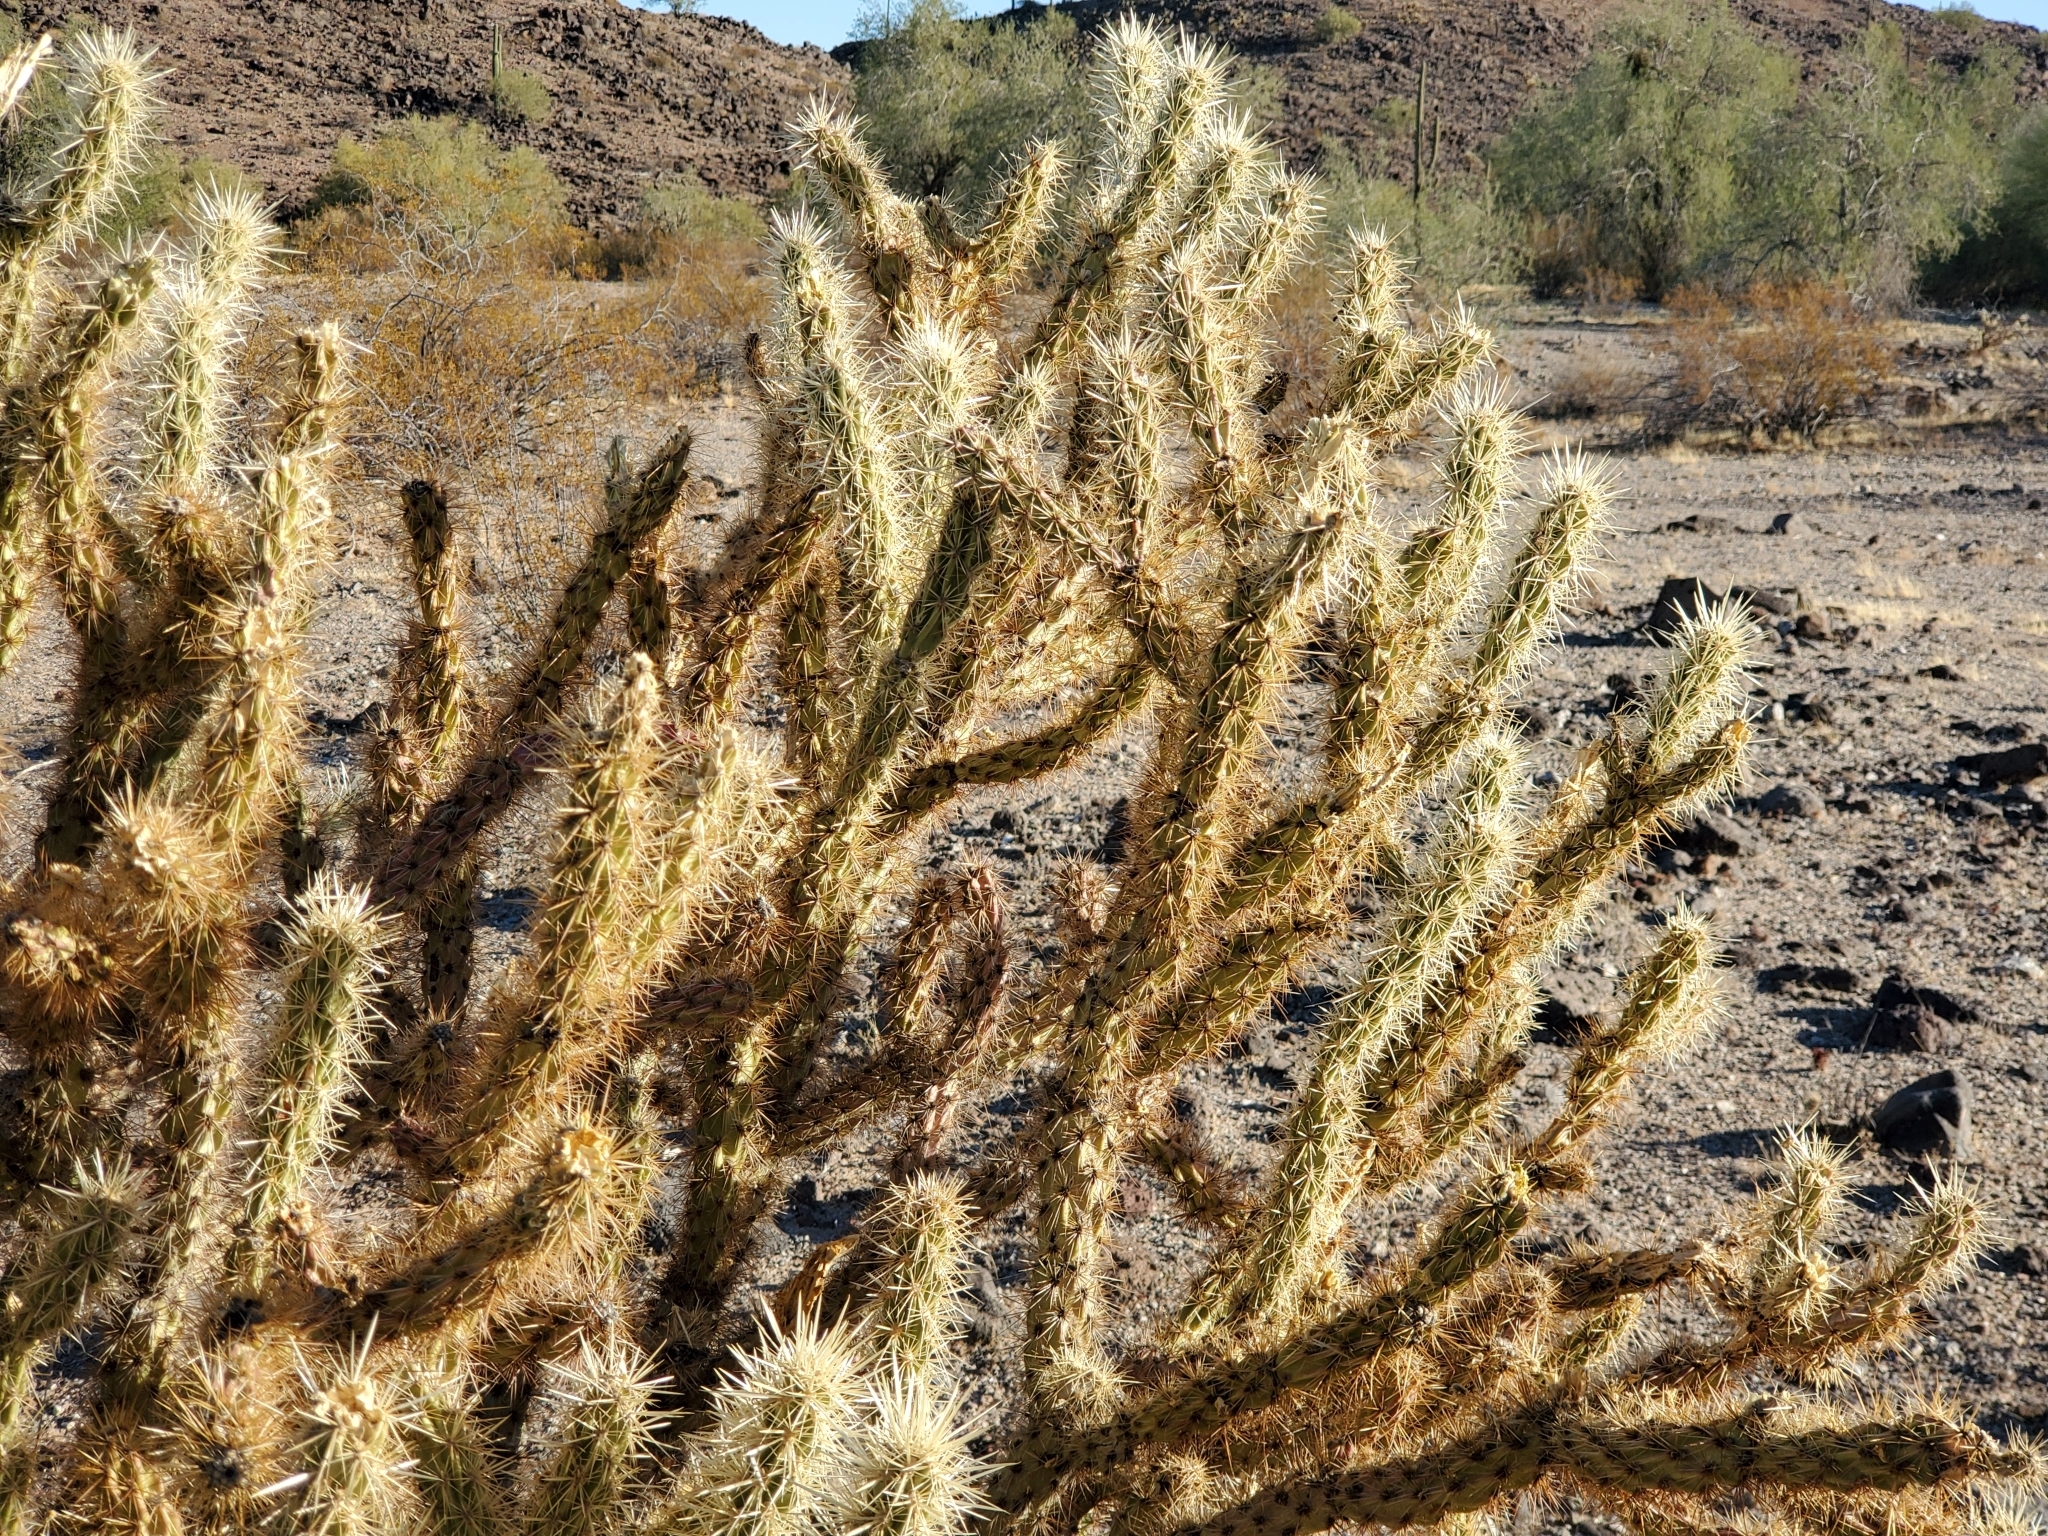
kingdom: Plantae
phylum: Tracheophyta
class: Magnoliopsida
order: Caryophyllales
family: Cactaceae
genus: Cylindropuntia
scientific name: Cylindropuntia acanthocarpa
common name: Buckhorn cholla
